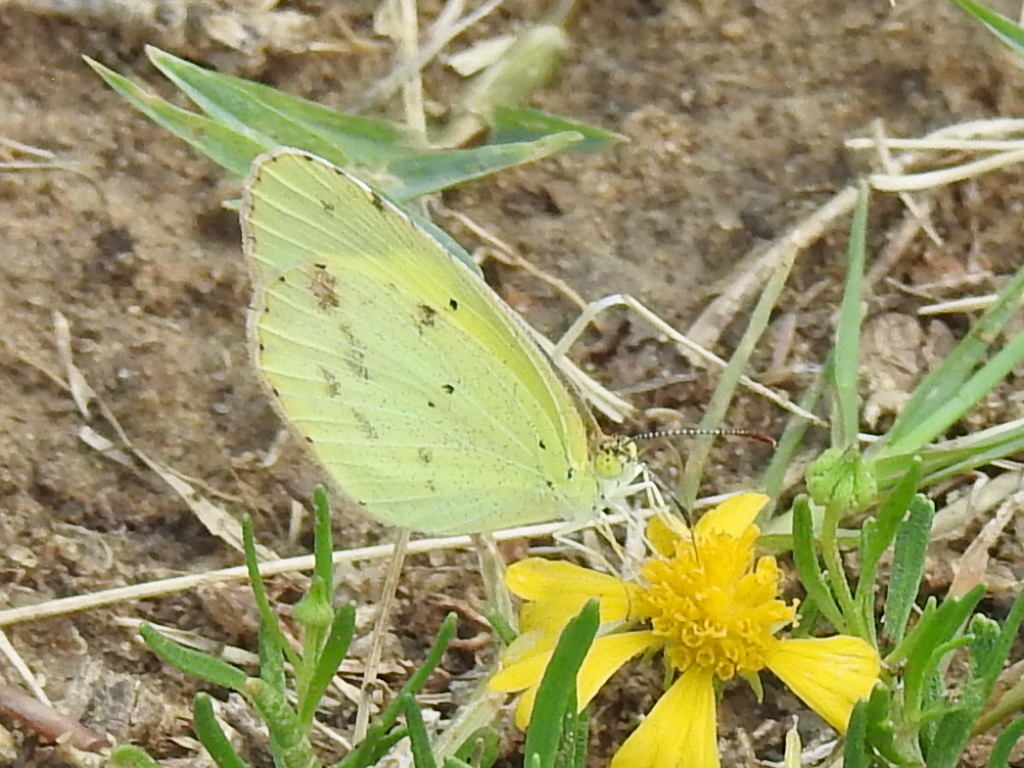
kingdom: Animalia
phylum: Arthropoda
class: Insecta
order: Lepidoptera
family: Pieridae
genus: Pyrisitia
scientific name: Pyrisitia lisa
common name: Little yellow
